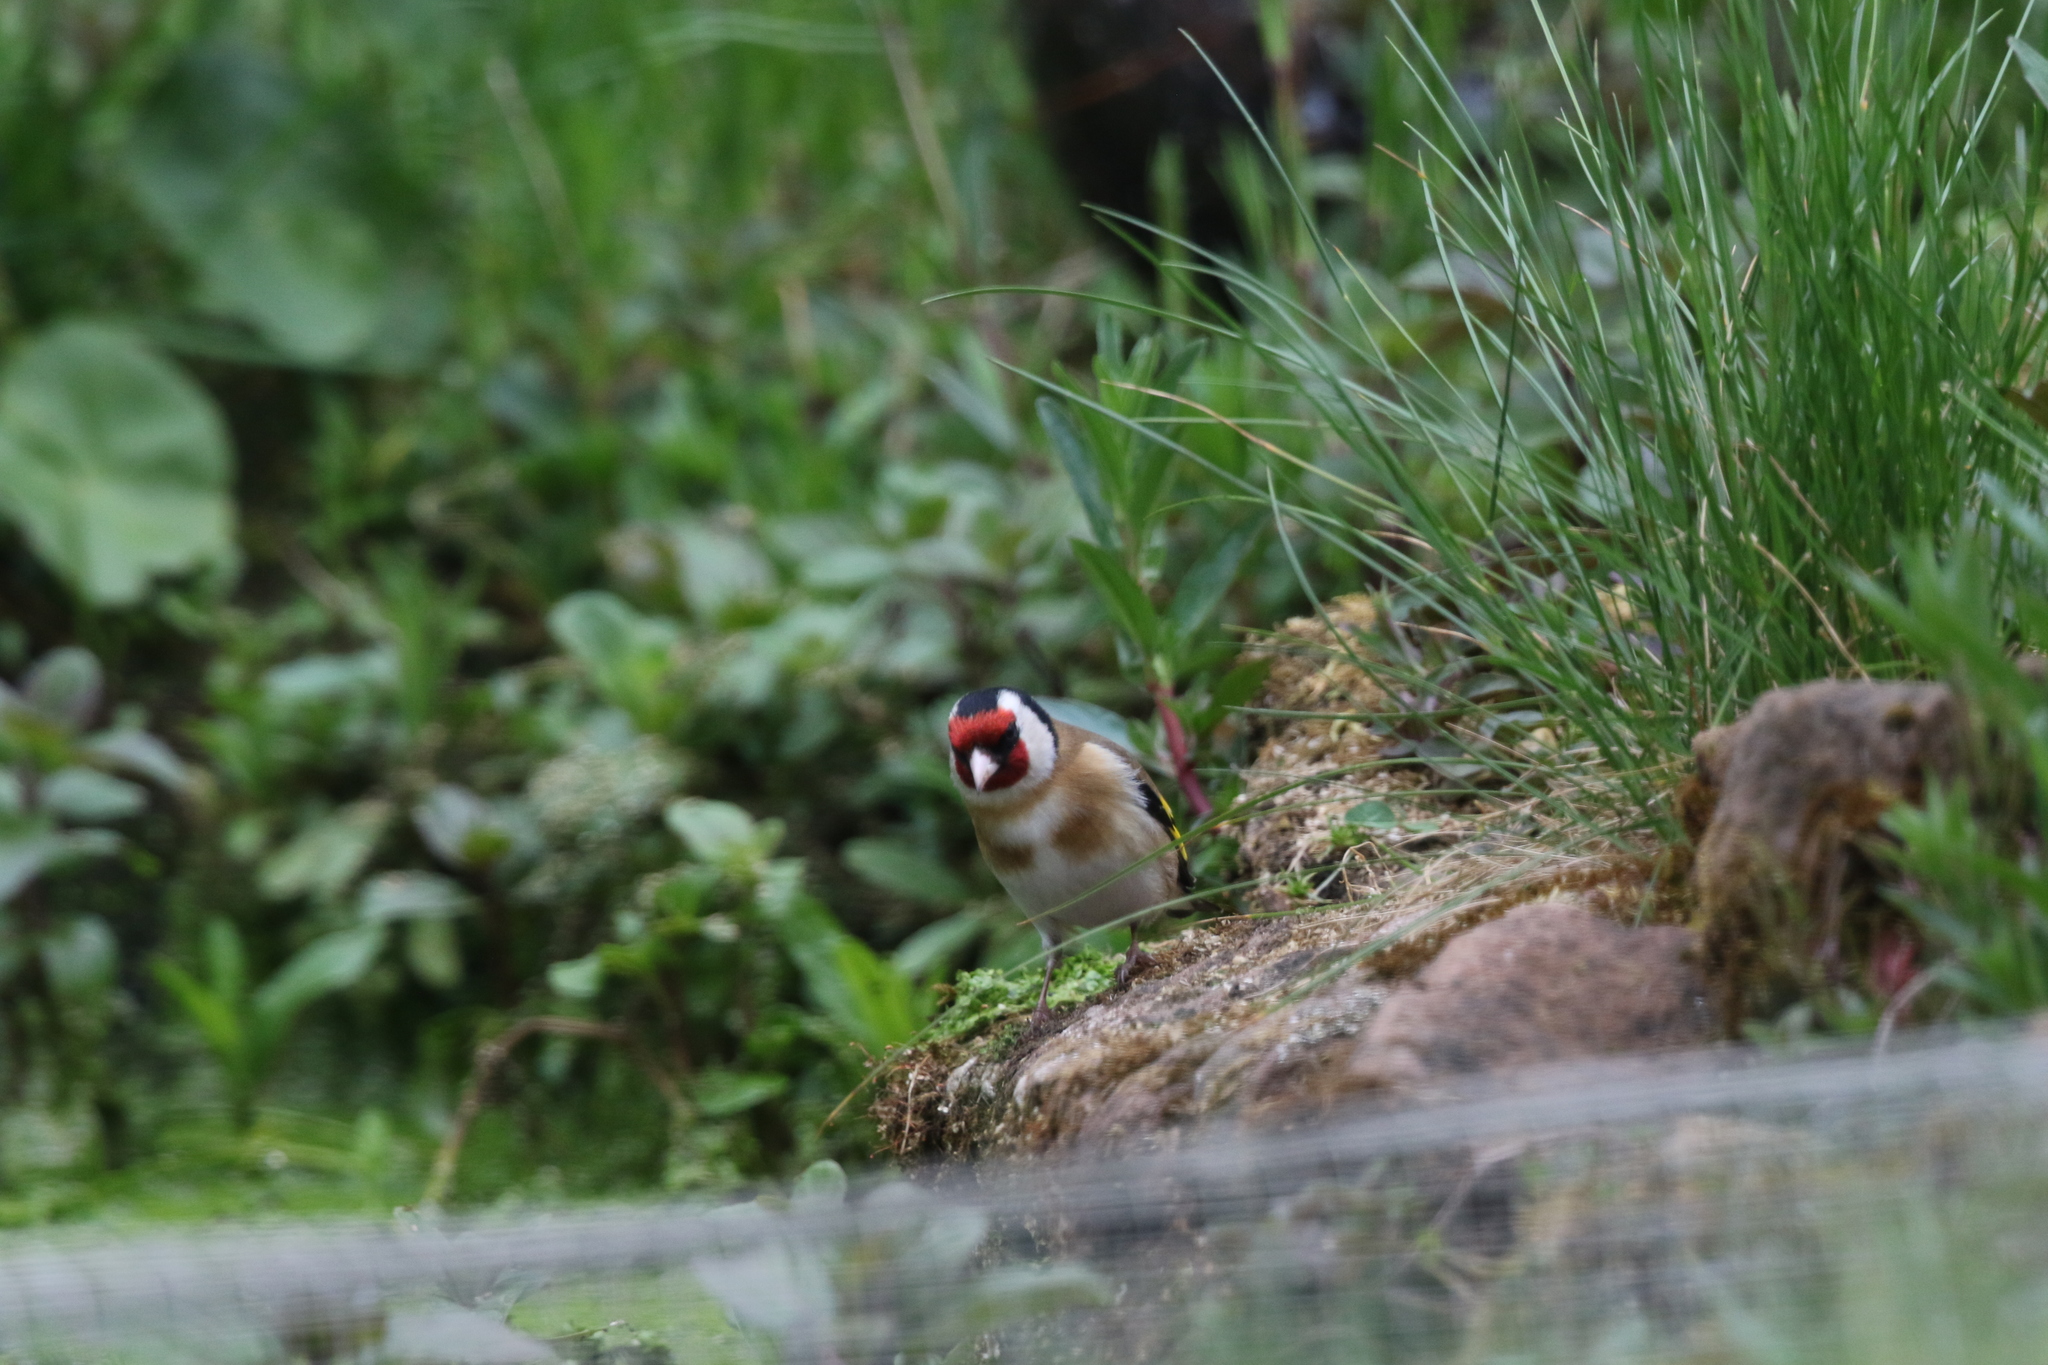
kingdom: Animalia
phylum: Chordata
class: Aves
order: Passeriformes
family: Fringillidae
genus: Carduelis
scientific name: Carduelis carduelis
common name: European goldfinch
